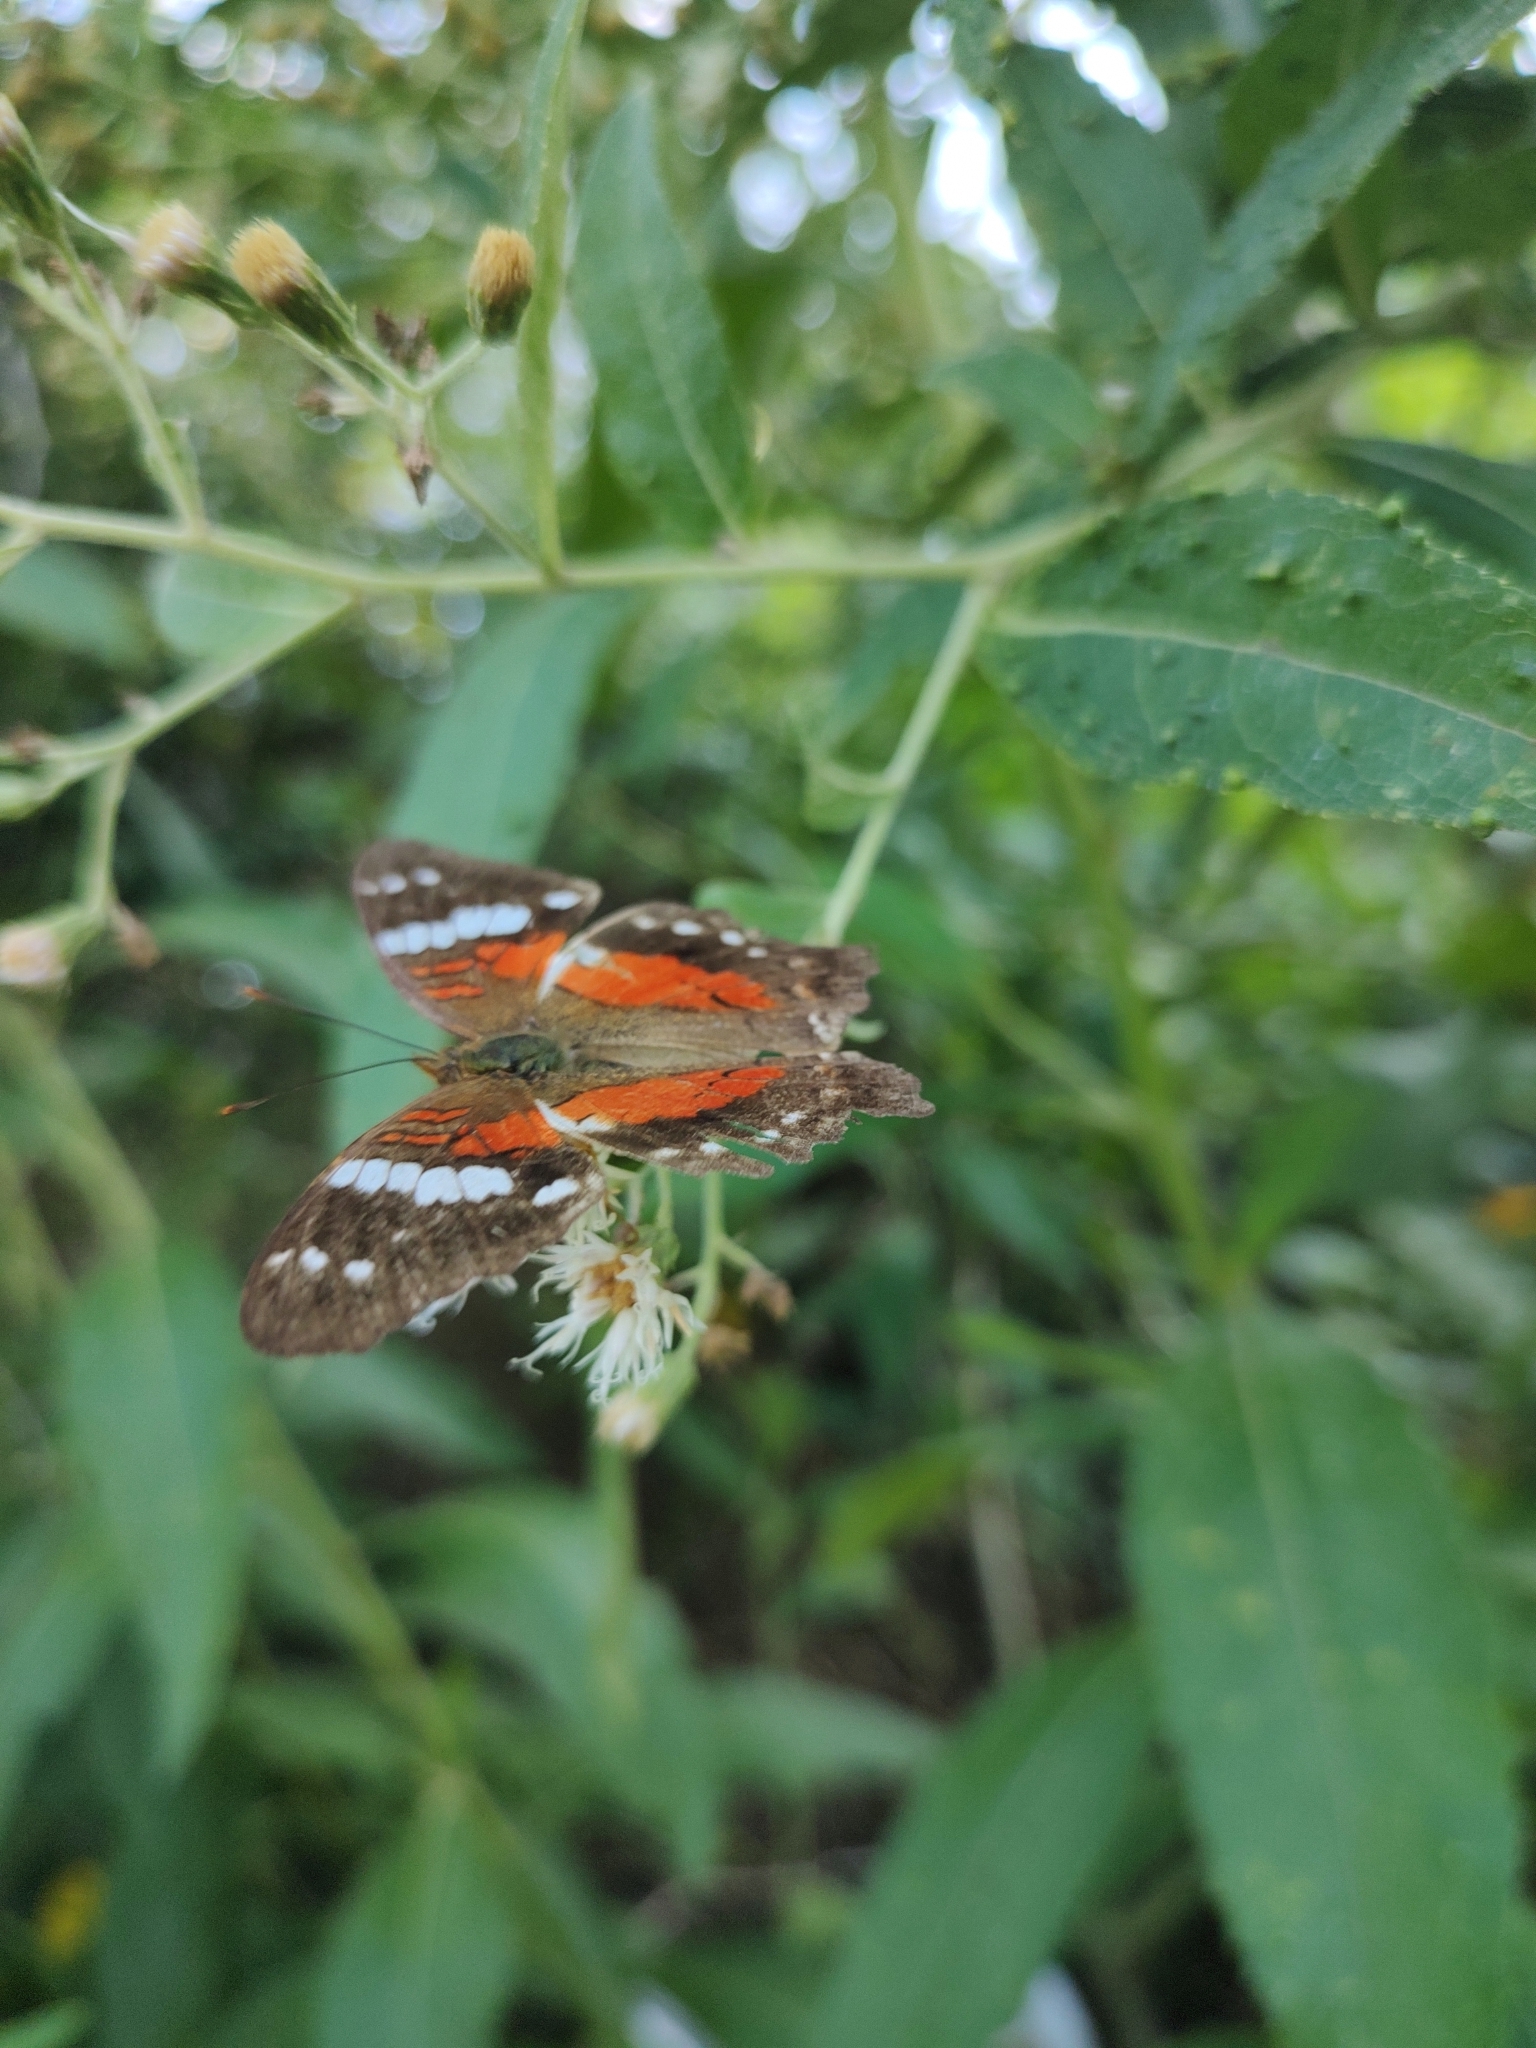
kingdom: Animalia
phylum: Arthropoda
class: Insecta
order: Lepidoptera
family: Nymphalidae
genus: Anartia
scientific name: Anartia amathea
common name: Red peacock
